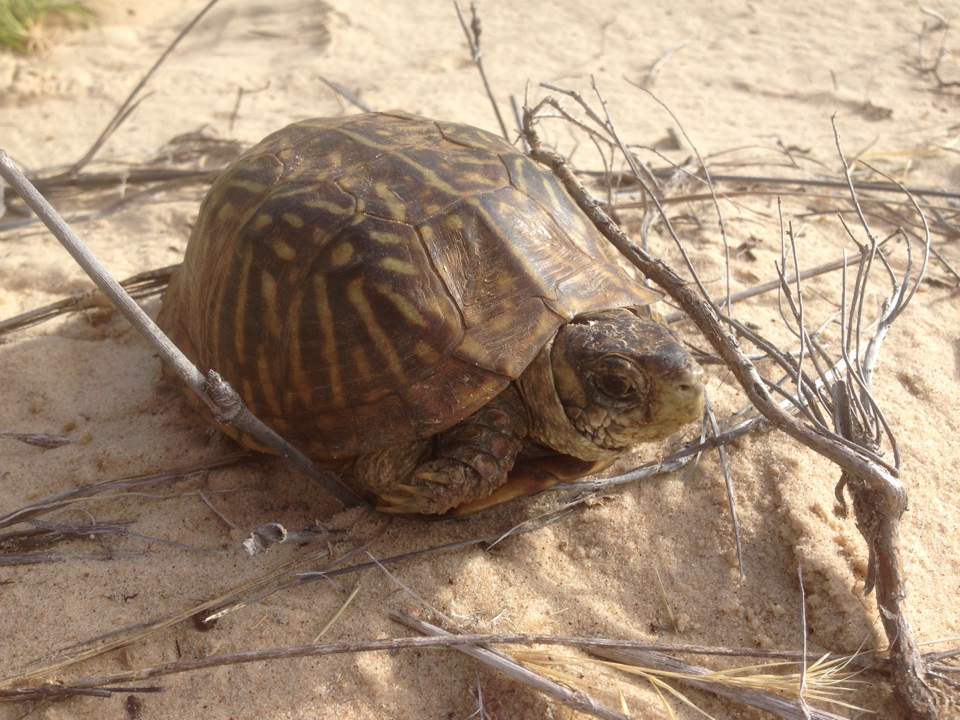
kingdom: Animalia
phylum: Chordata
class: Testudines
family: Emydidae
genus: Terrapene
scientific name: Terrapene ornata
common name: Western box turtle
